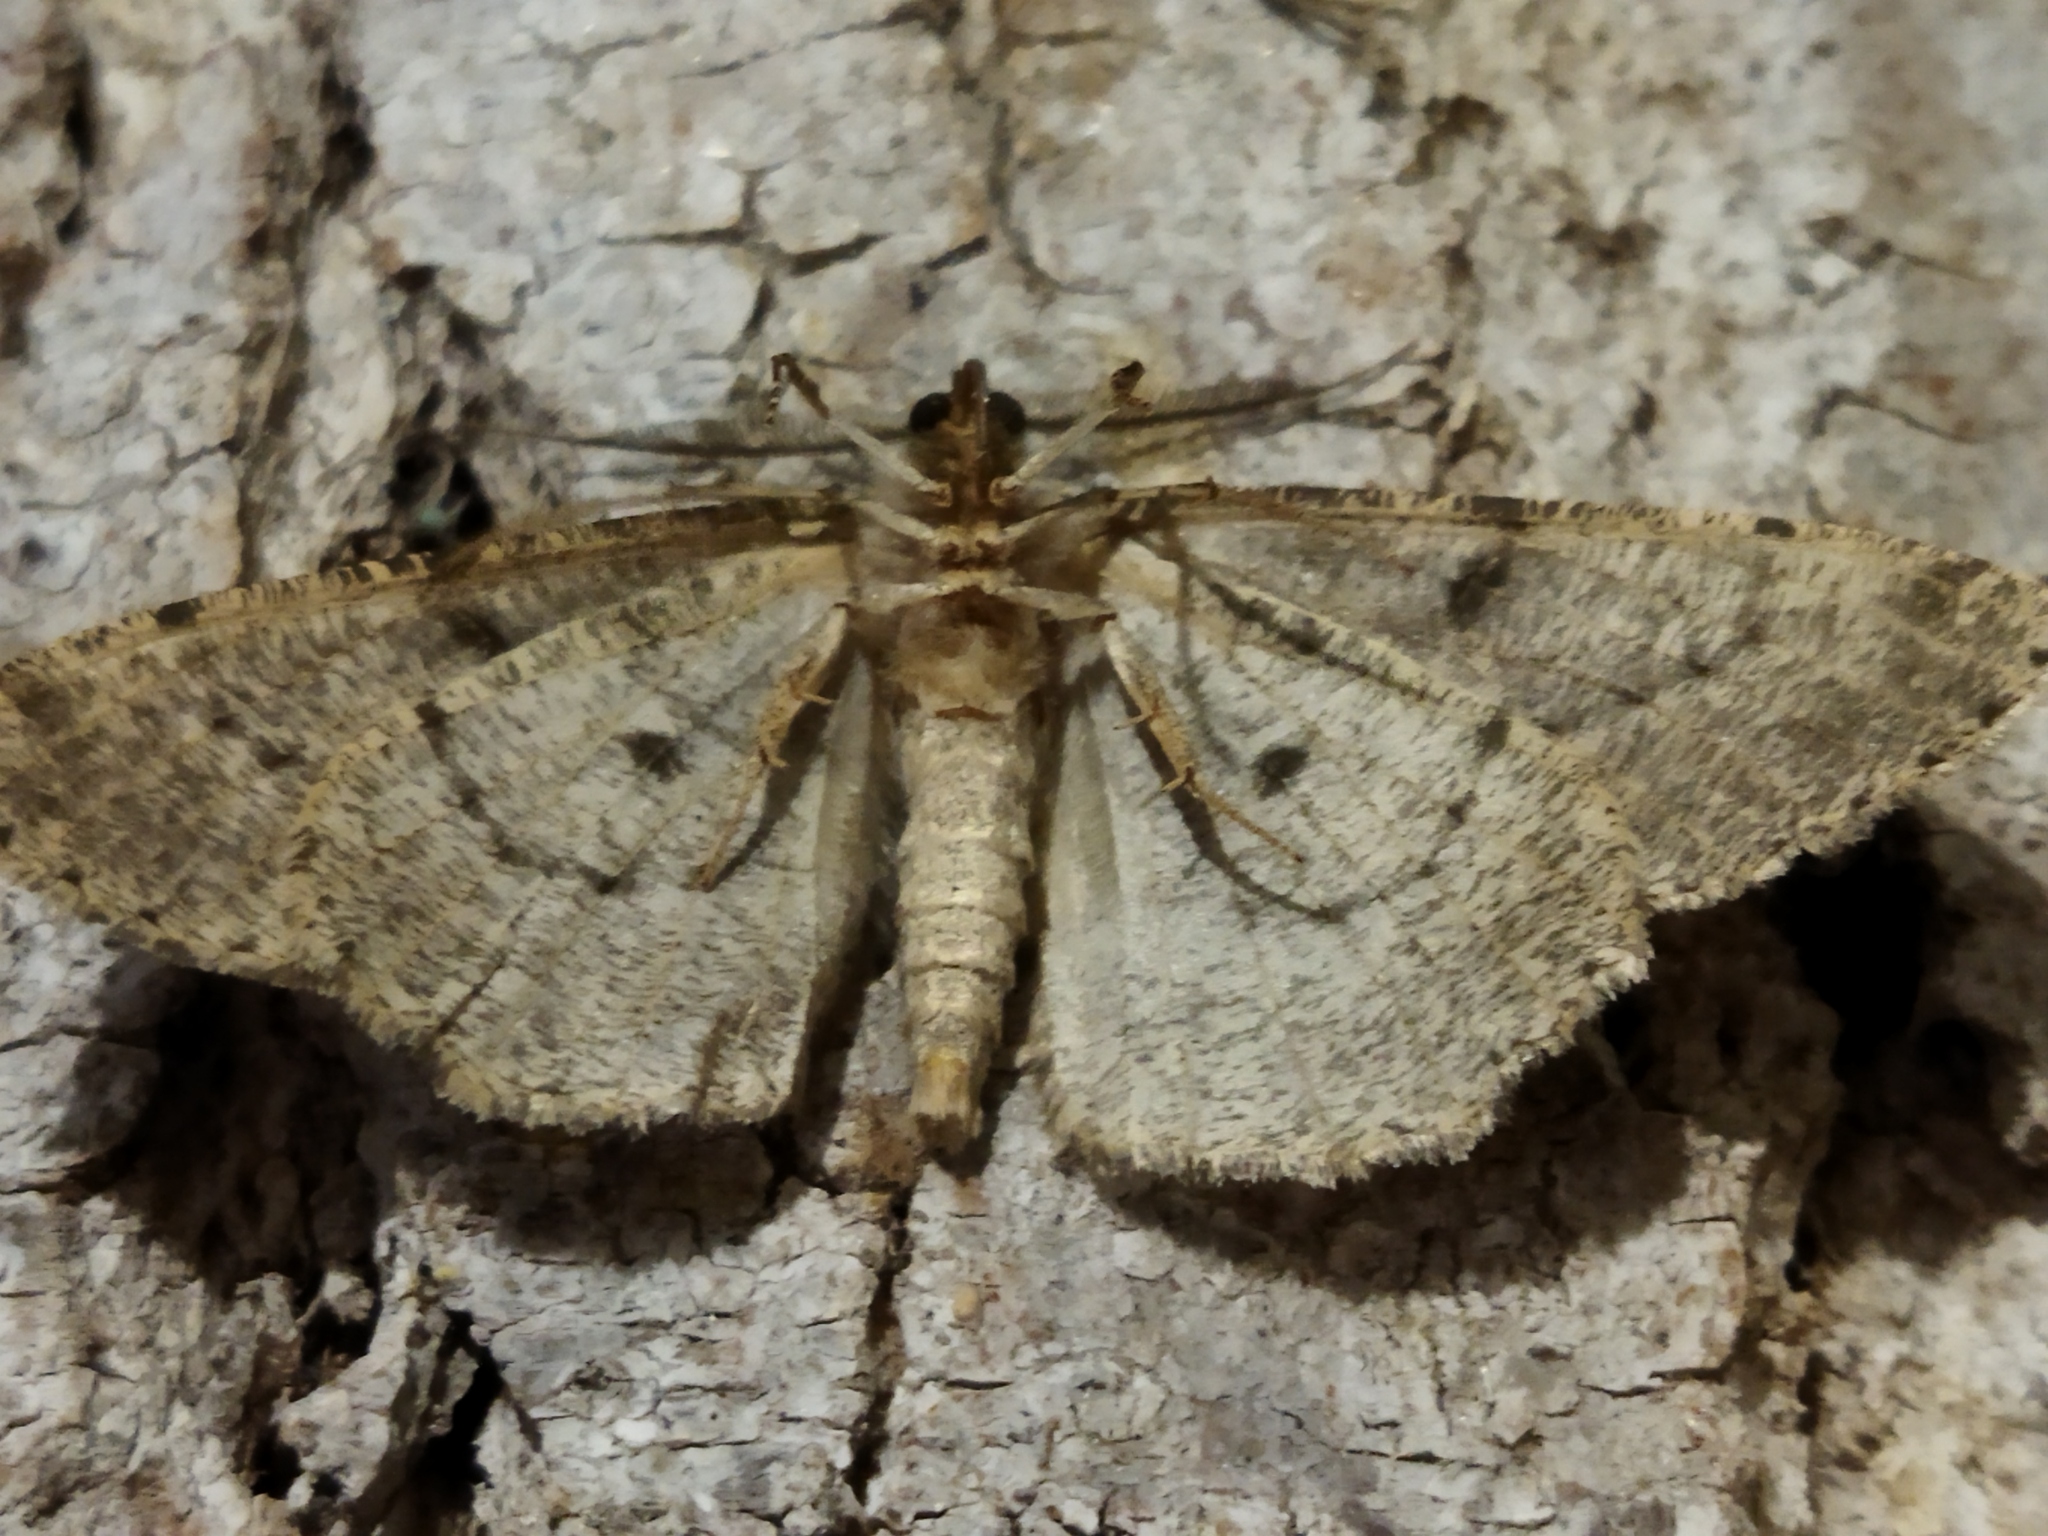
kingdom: Animalia
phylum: Arthropoda
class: Insecta
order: Lepidoptera
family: Geometridae
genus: Hypomecis
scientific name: Hypomecis punctinalis
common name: Pale oak beauty
